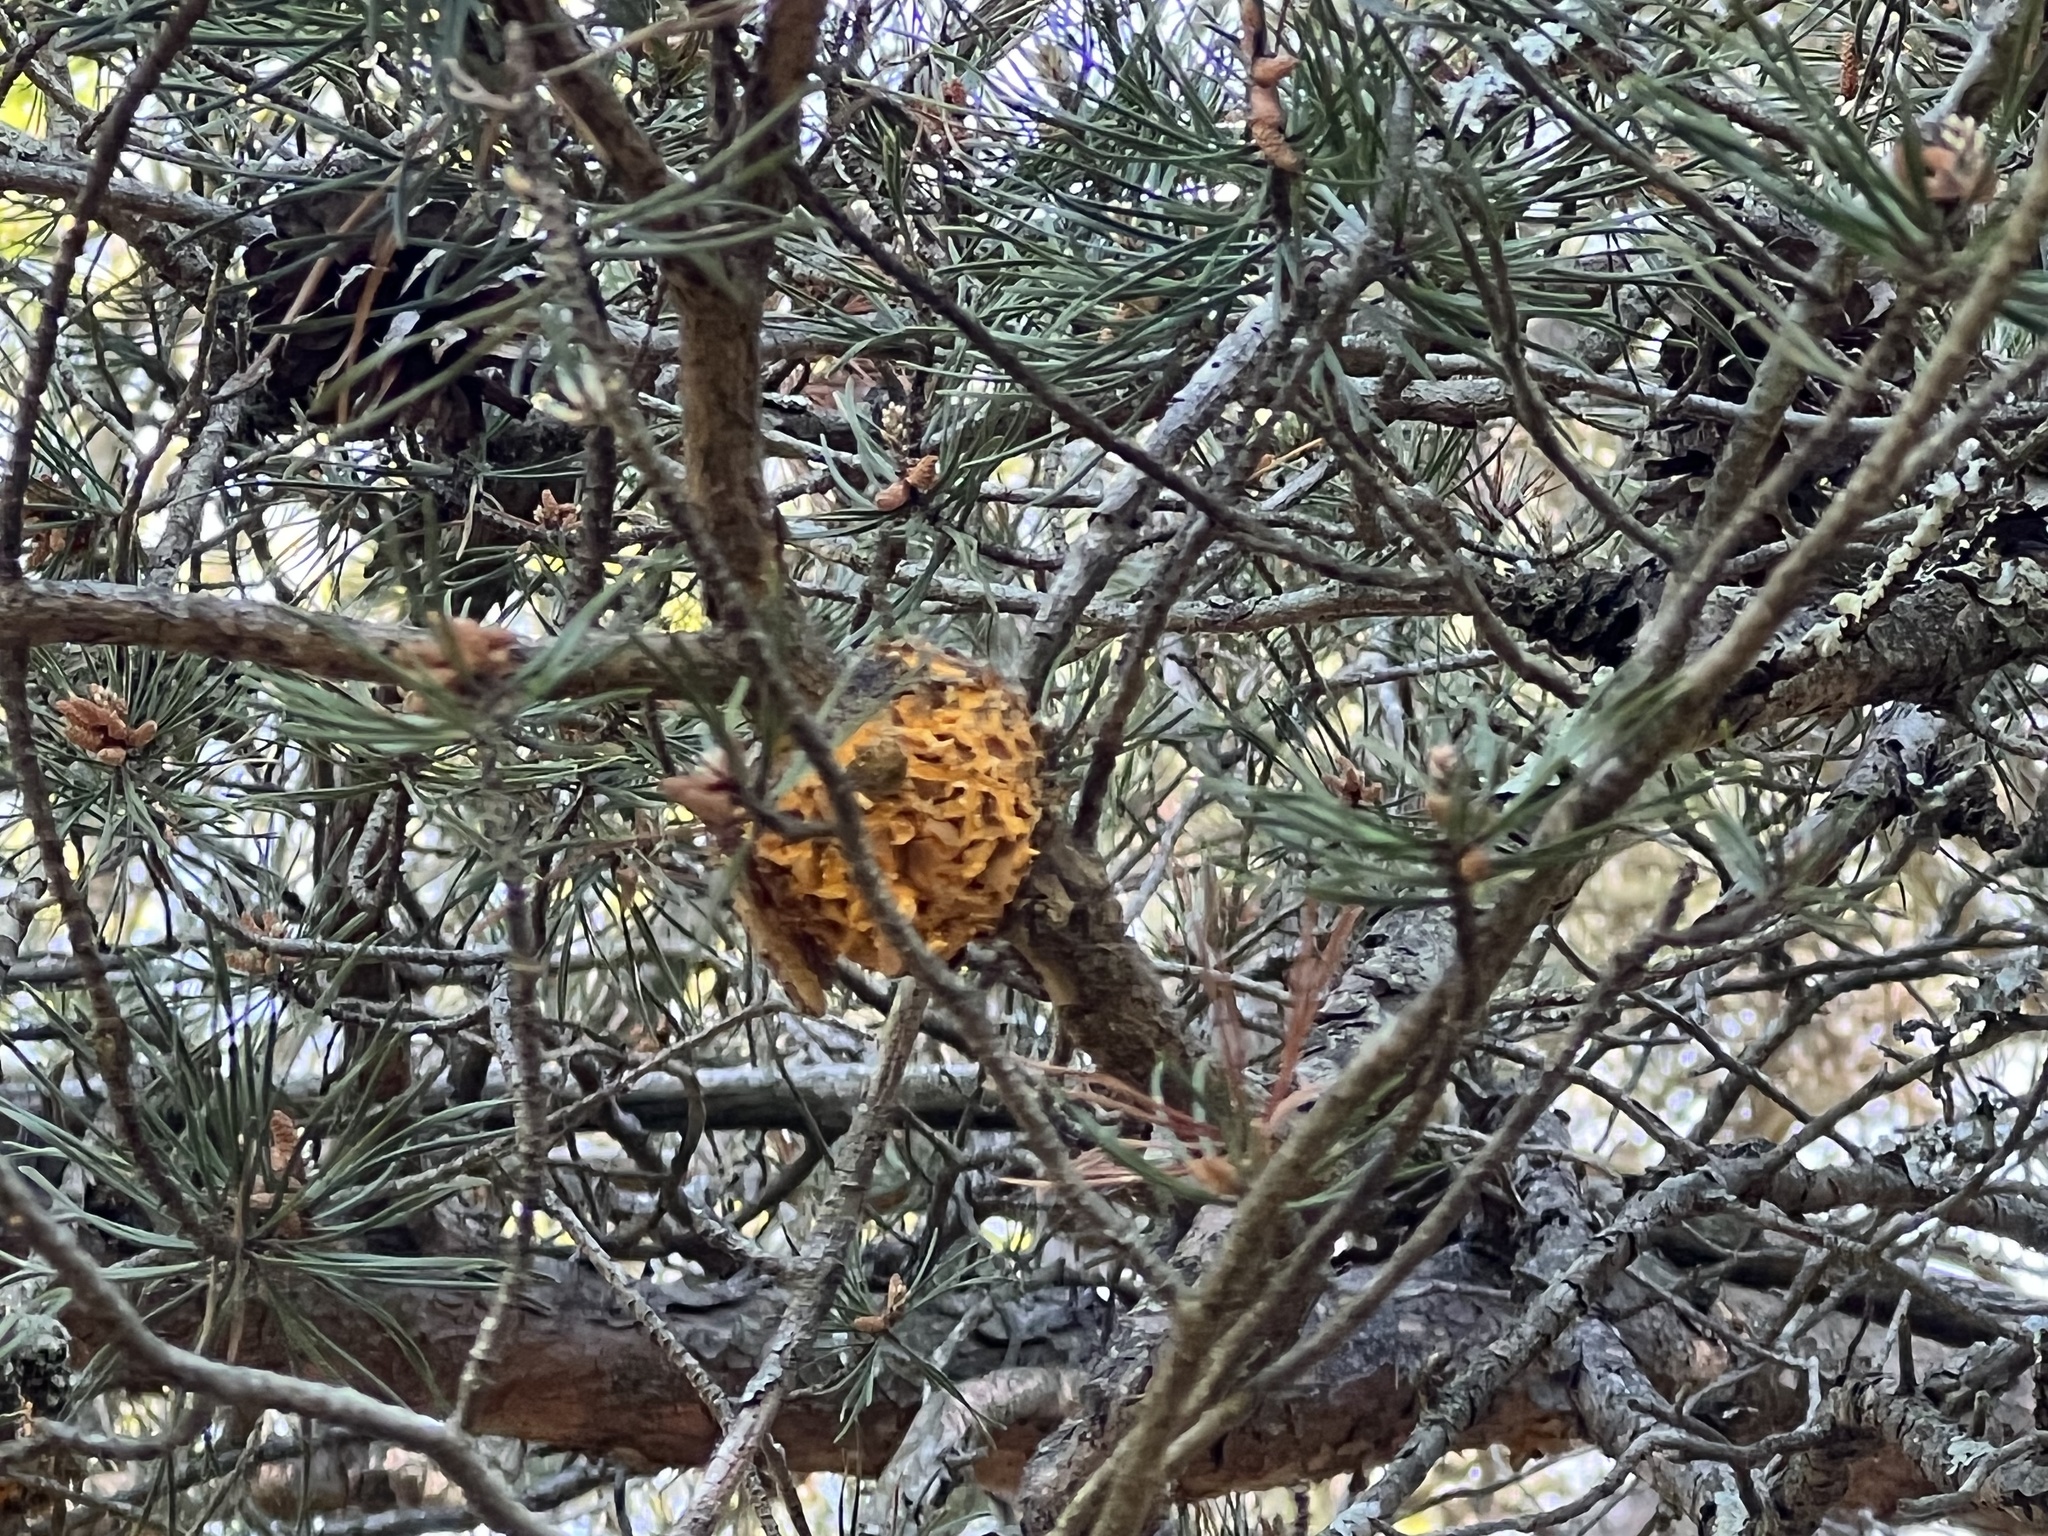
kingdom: Fungi
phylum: Basidiomycota
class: Pucciniomycetes
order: Pucciniales
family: Cronartiaceae
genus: Cronartium
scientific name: Cronartium quercuum
